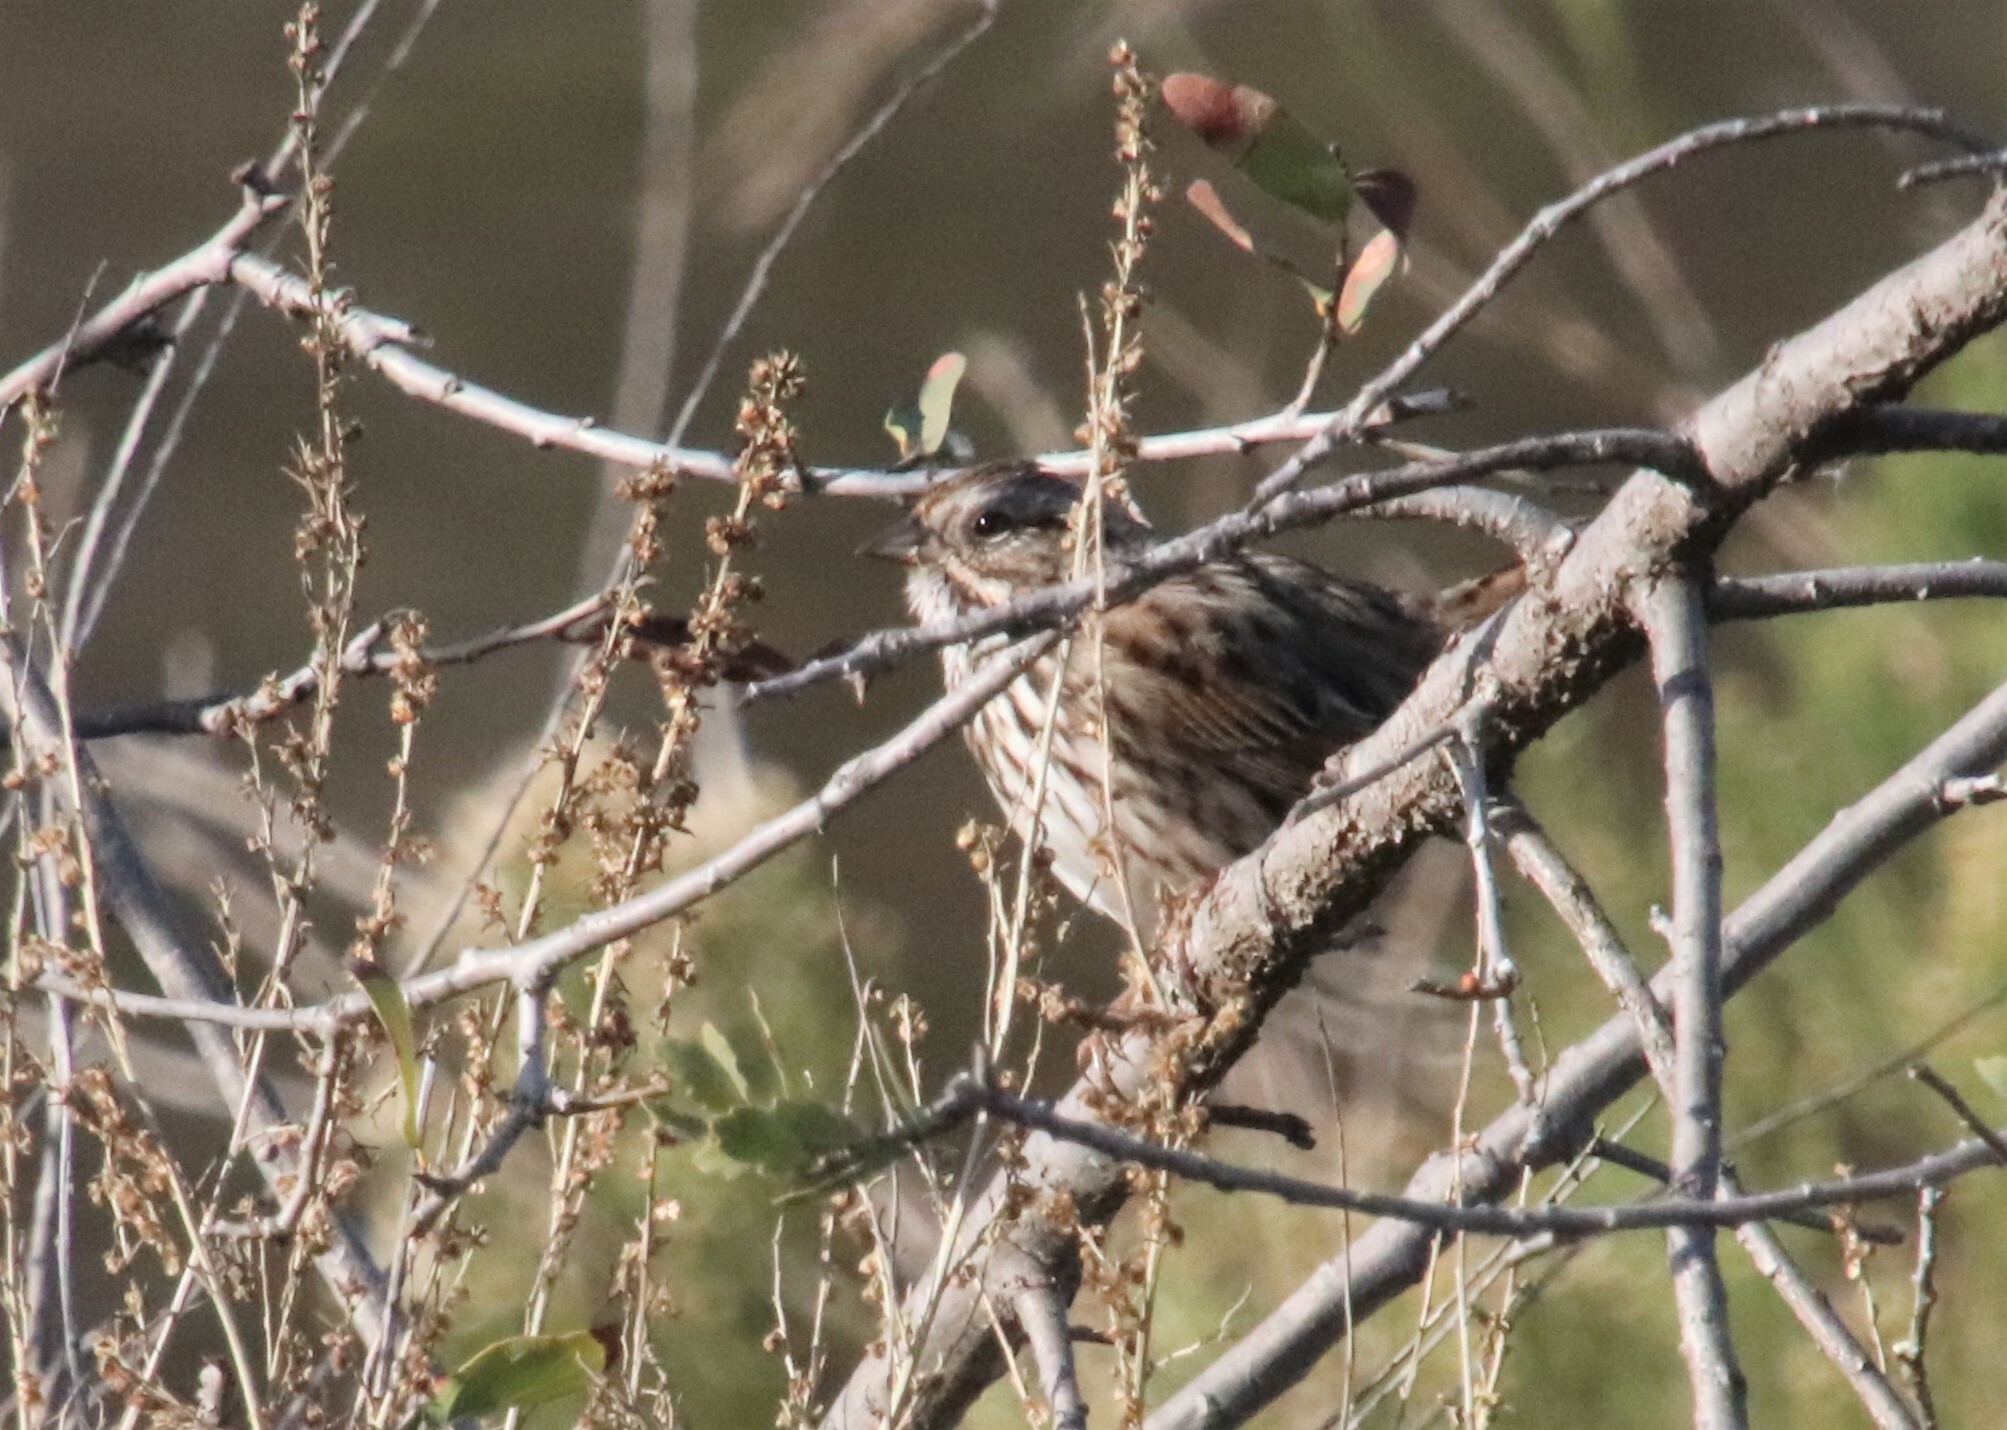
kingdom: Animalia
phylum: Chordata
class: Aves
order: Passeriformes
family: Passerellidae
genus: Melospiza
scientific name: Melospiza melodia
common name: Song sparrow
